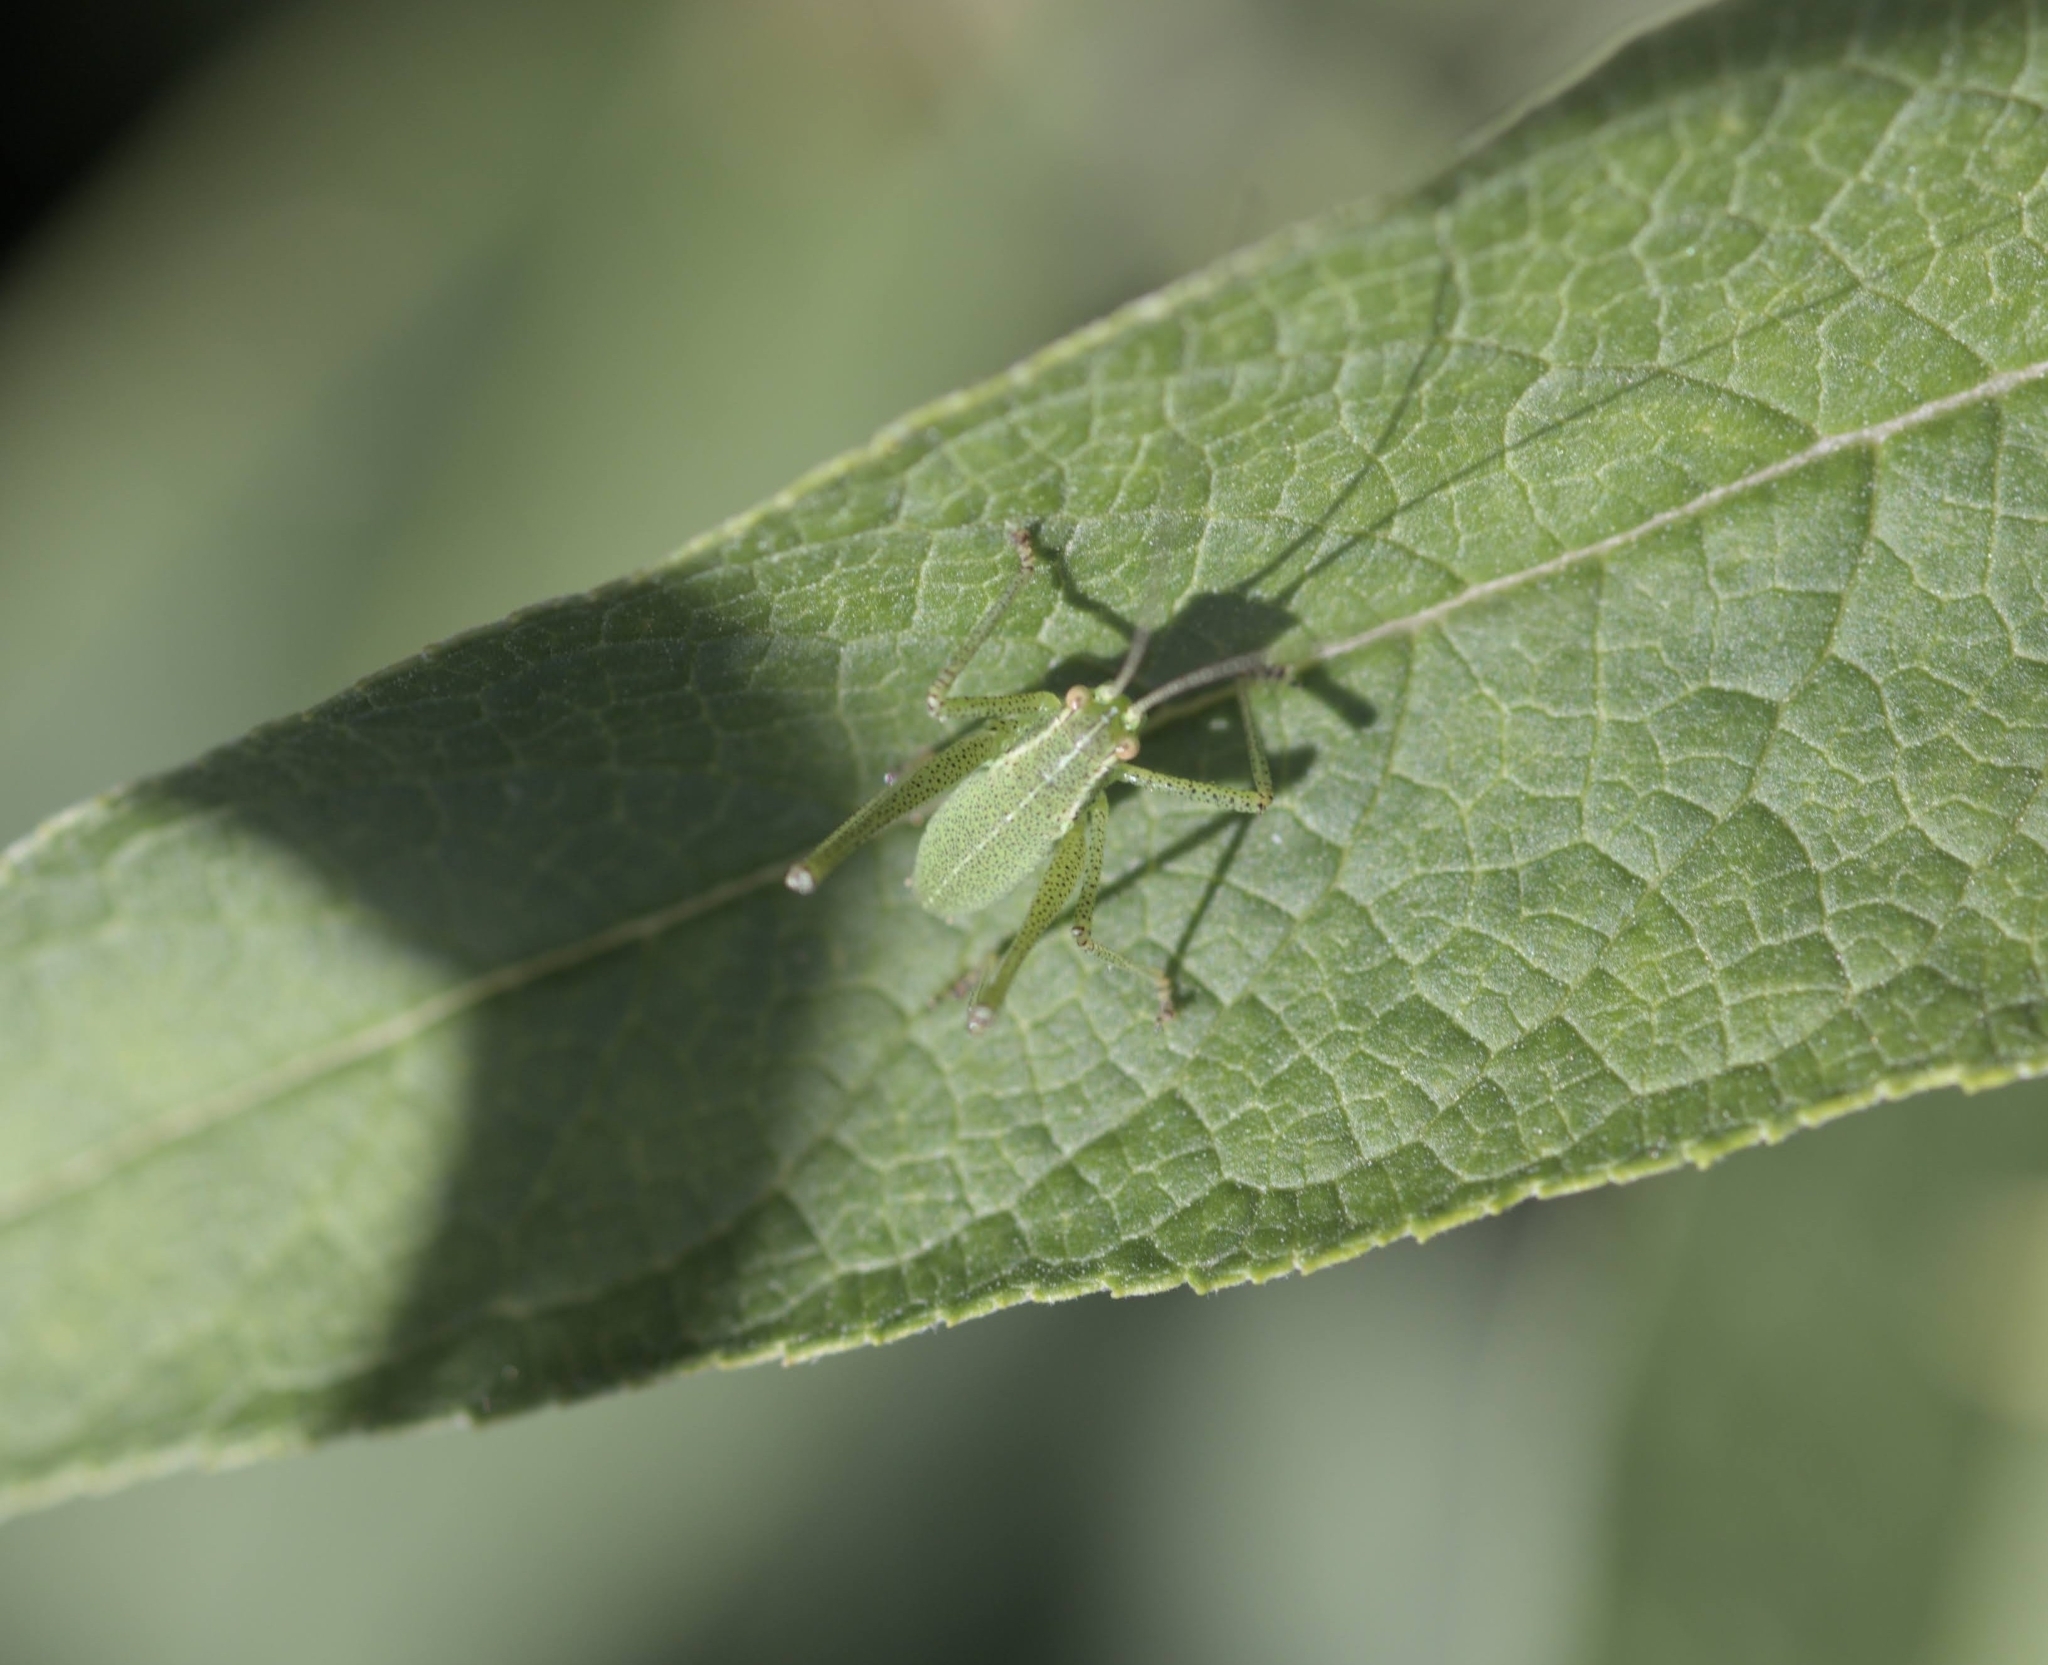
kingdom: Animalia
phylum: Arthropoda
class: Insecta
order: Orthoptera
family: Tettigoniidae
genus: Leptophyes
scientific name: Leptophyes punctatissima
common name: Speckled bush-cricket
